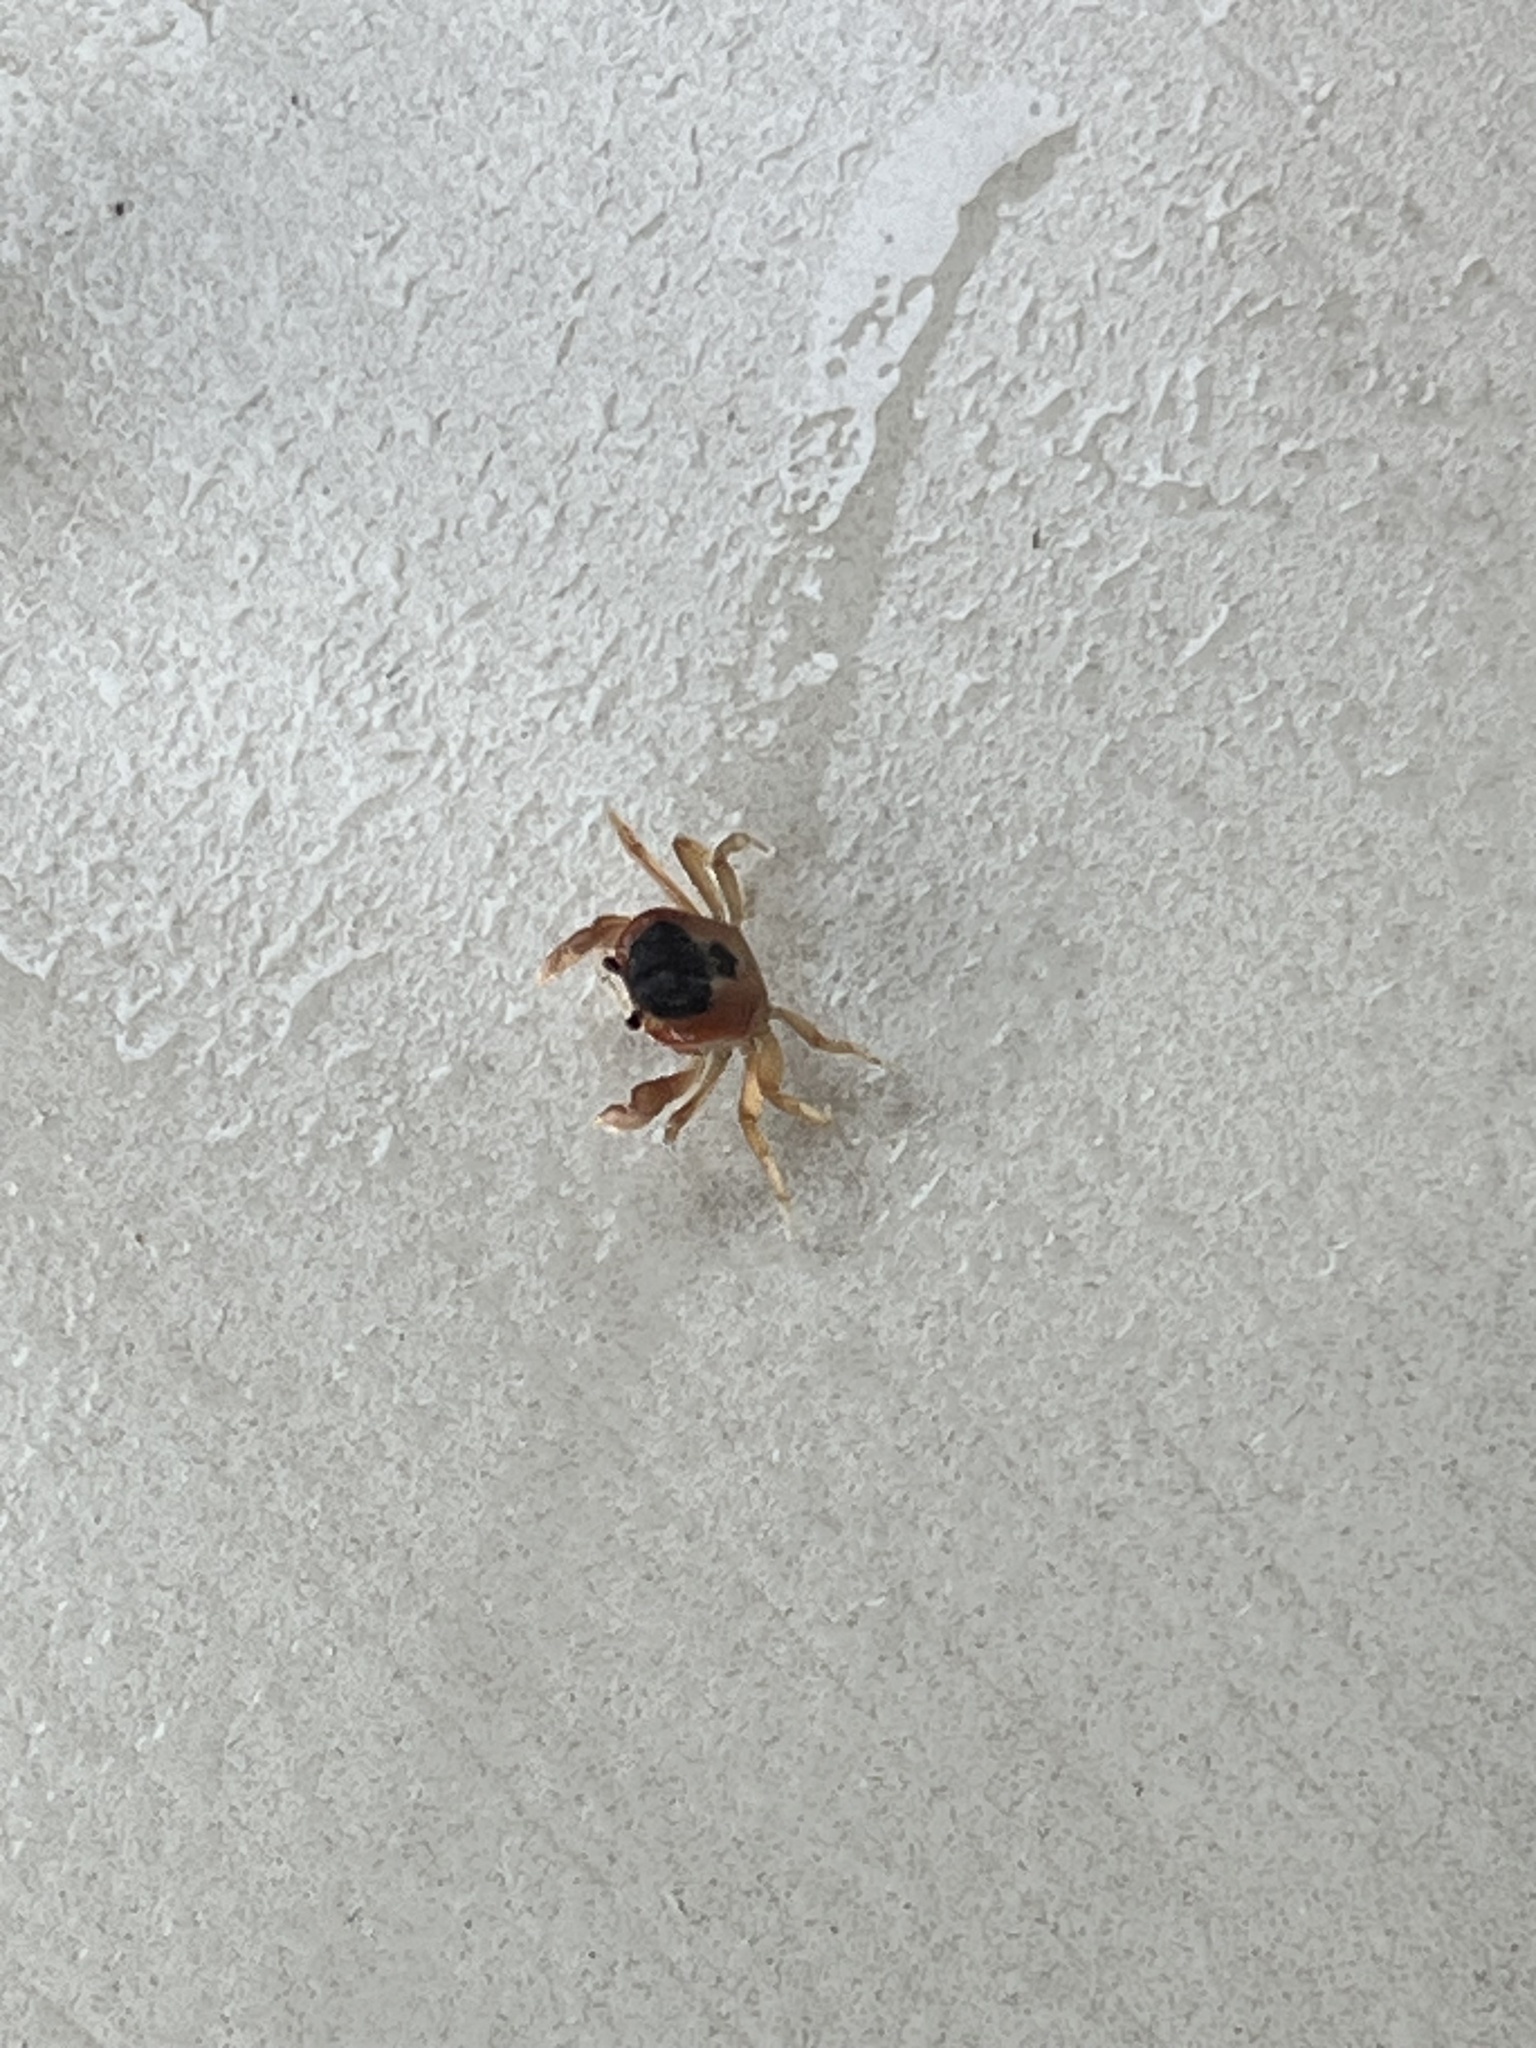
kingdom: Animalia
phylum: Arthropoda
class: Malacostraca
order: Decapoda
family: Gecarcinidae
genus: Gecarcinus
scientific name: Gecarcinus lateralis
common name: Bermuda land crab
